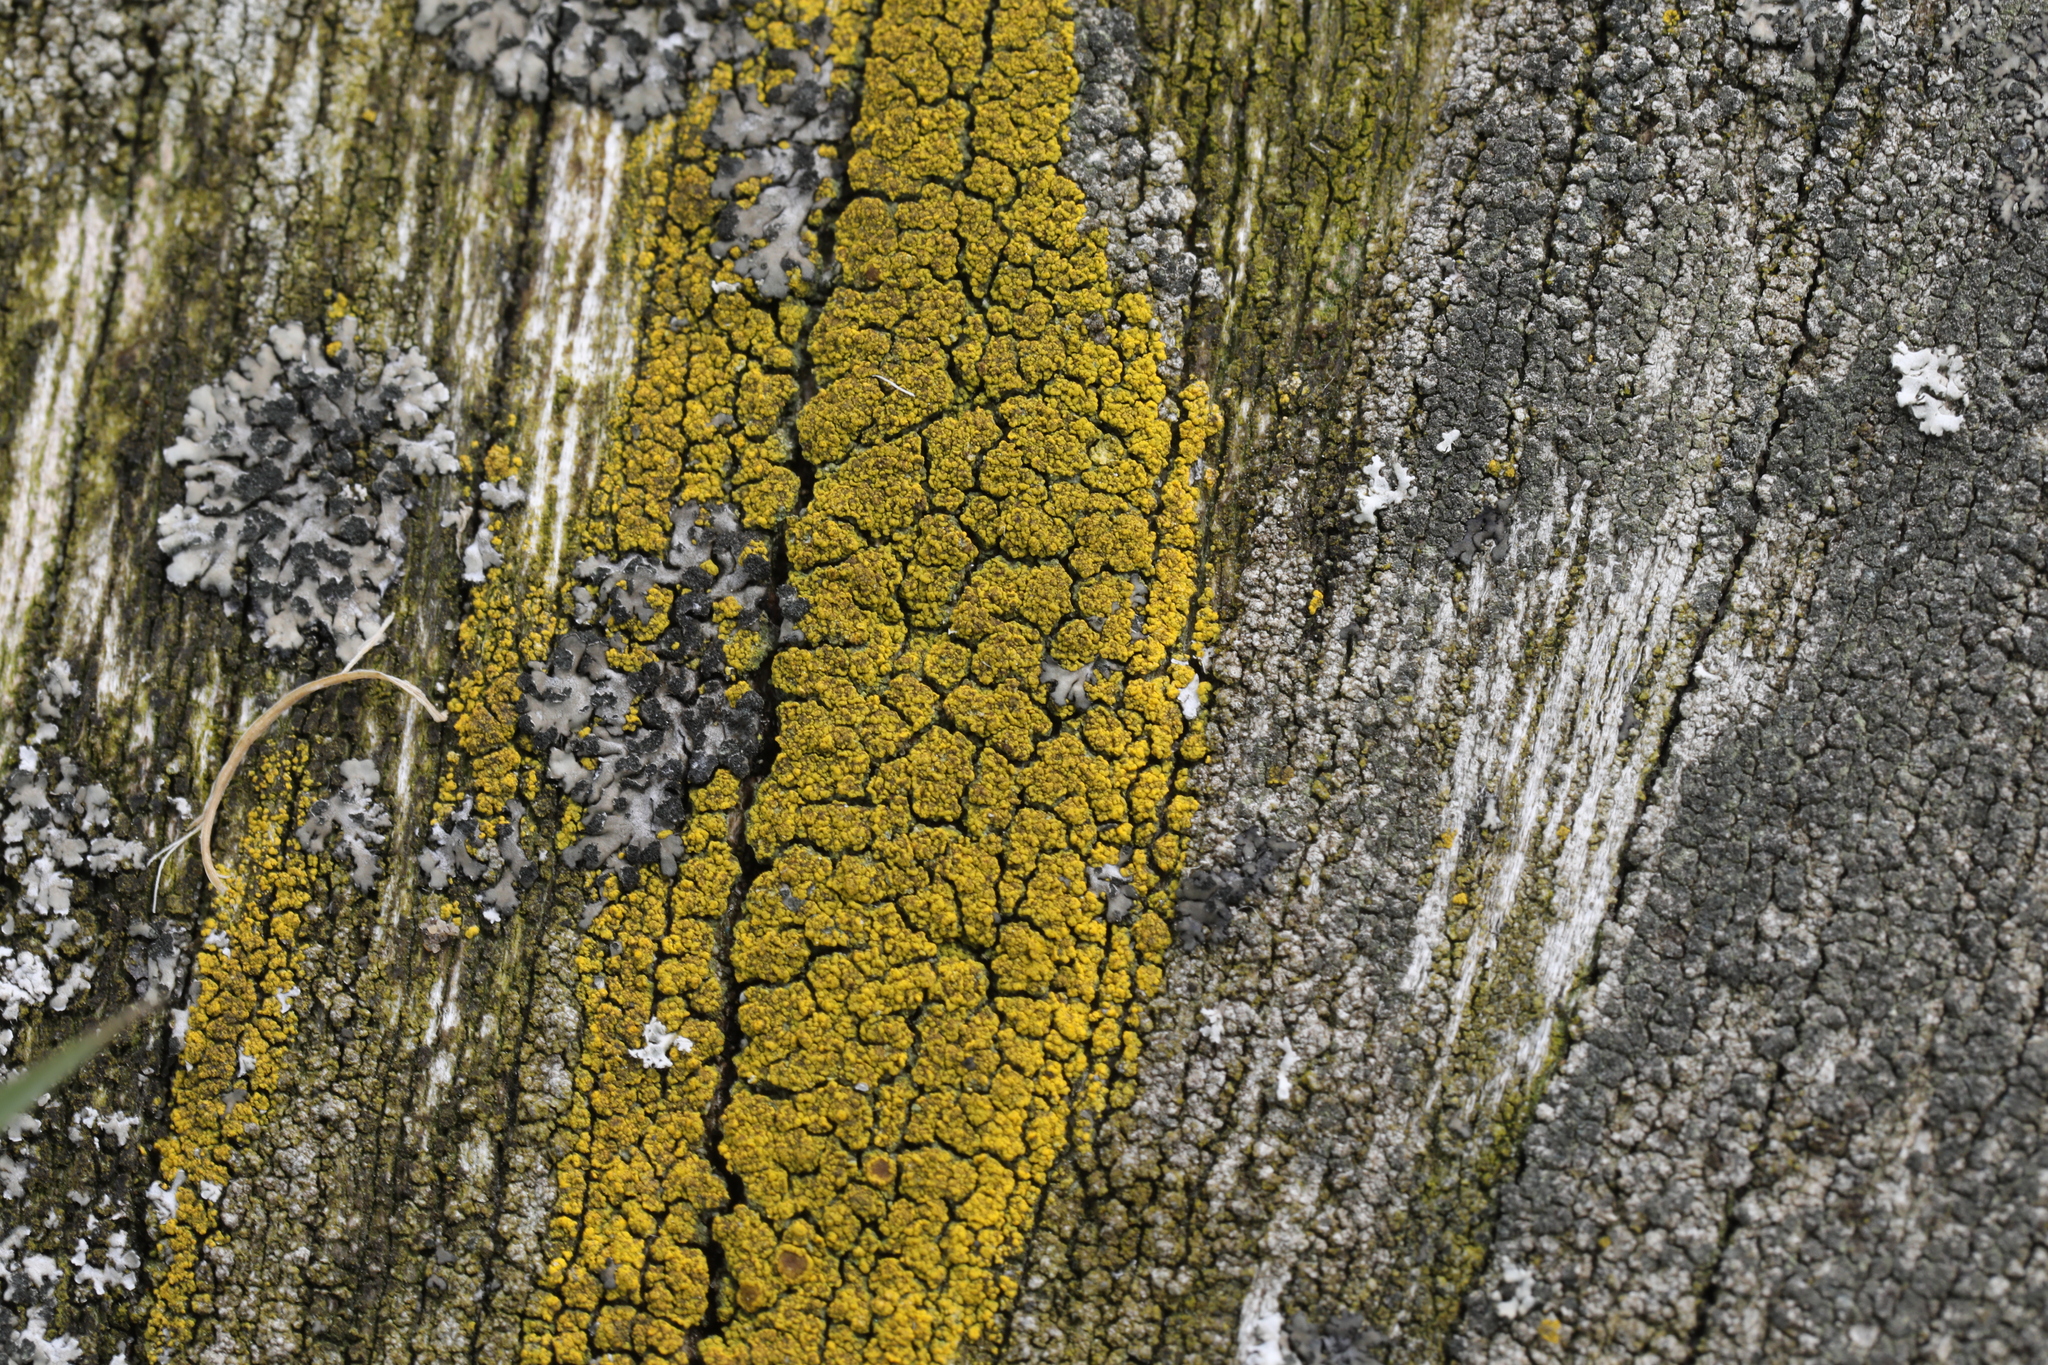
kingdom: Fungi
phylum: Ascomycota
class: Candelariomycetes
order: Candelariales
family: Candelariaceae
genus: Candelariella
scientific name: Candelariella vitellina
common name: Common goldspeck
